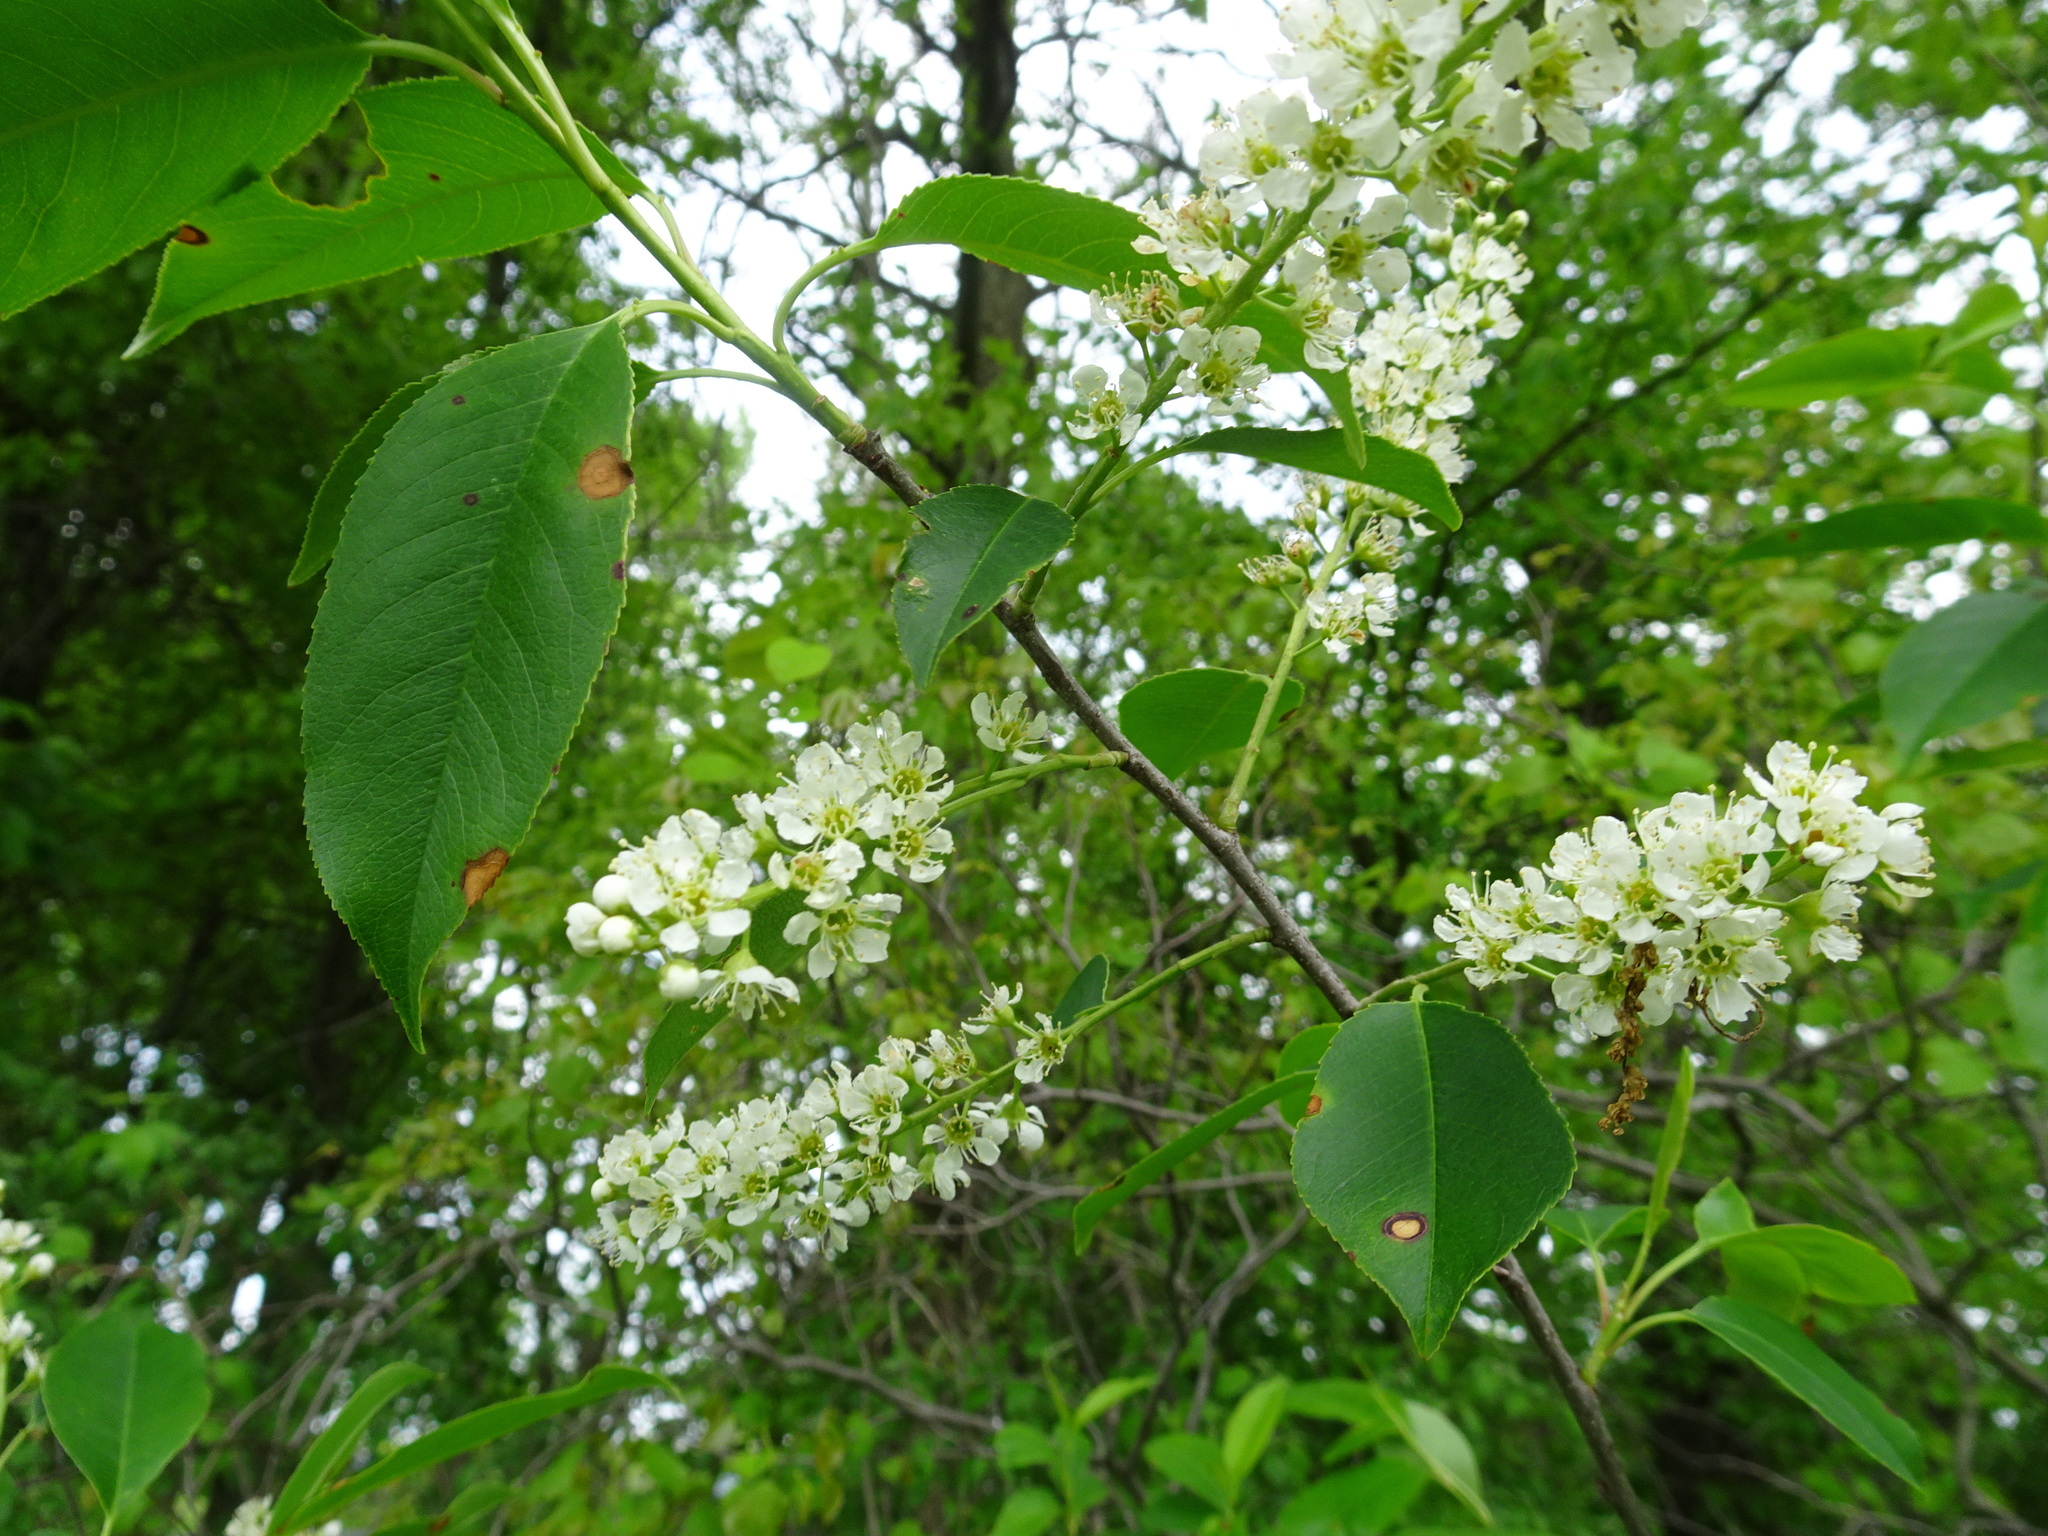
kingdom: Plantae
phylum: Tracheophyta
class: Magnoliopsida
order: Rosales
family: Rosaceae
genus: Prunus
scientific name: Prunus serotina
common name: Black cherry
